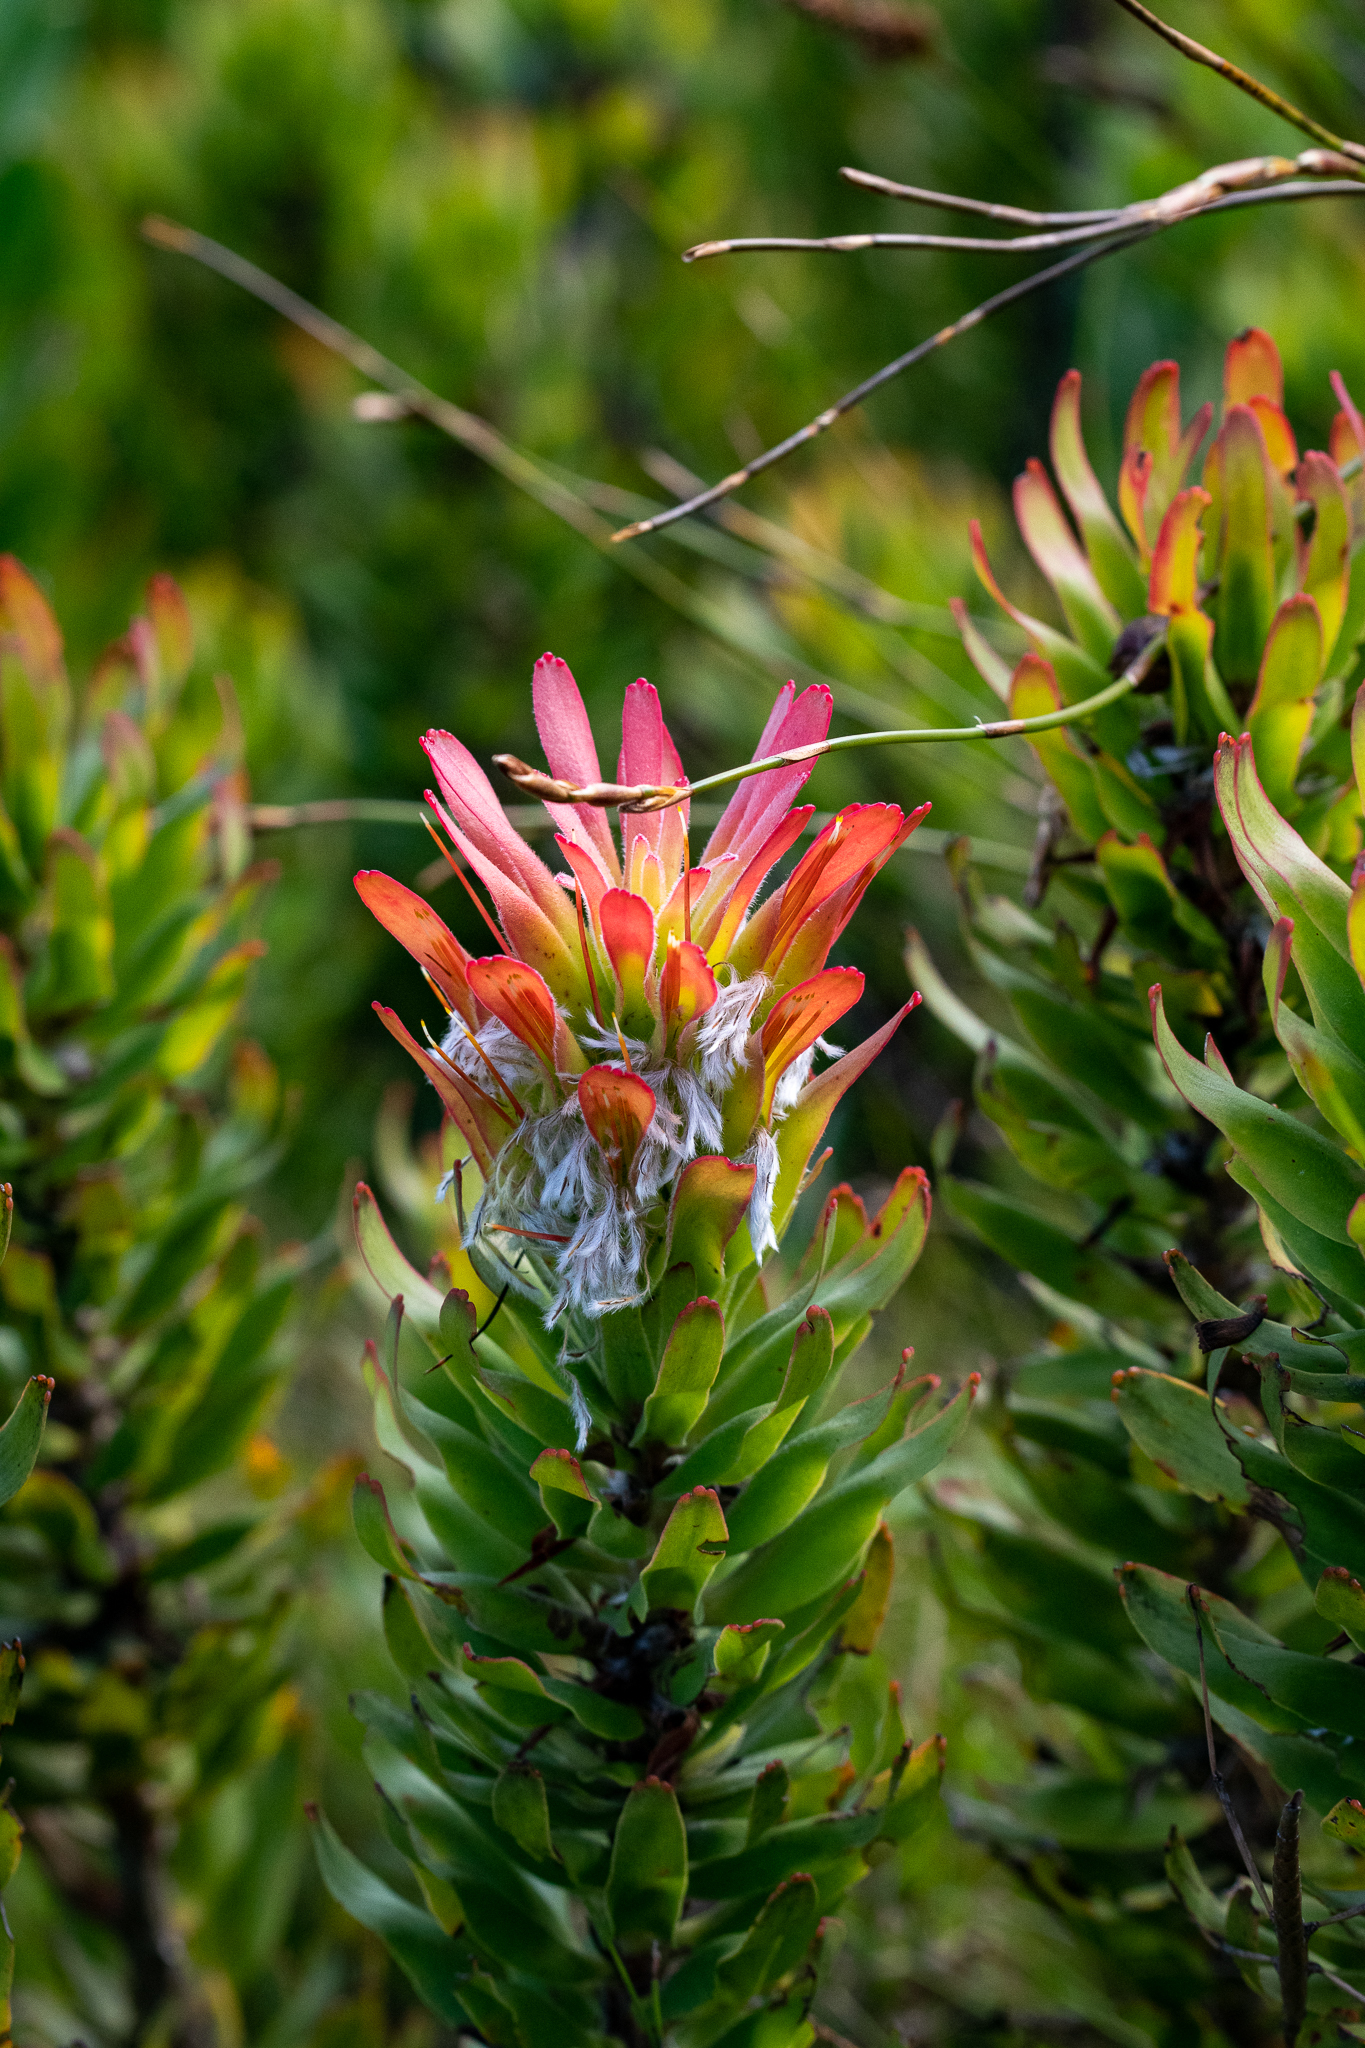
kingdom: Plantae
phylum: Tracheophyta
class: Magnoliopsida
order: Proteales
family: Proteaceae
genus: Mimetes
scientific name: Mimetes cucullatus
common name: Common pagoda
